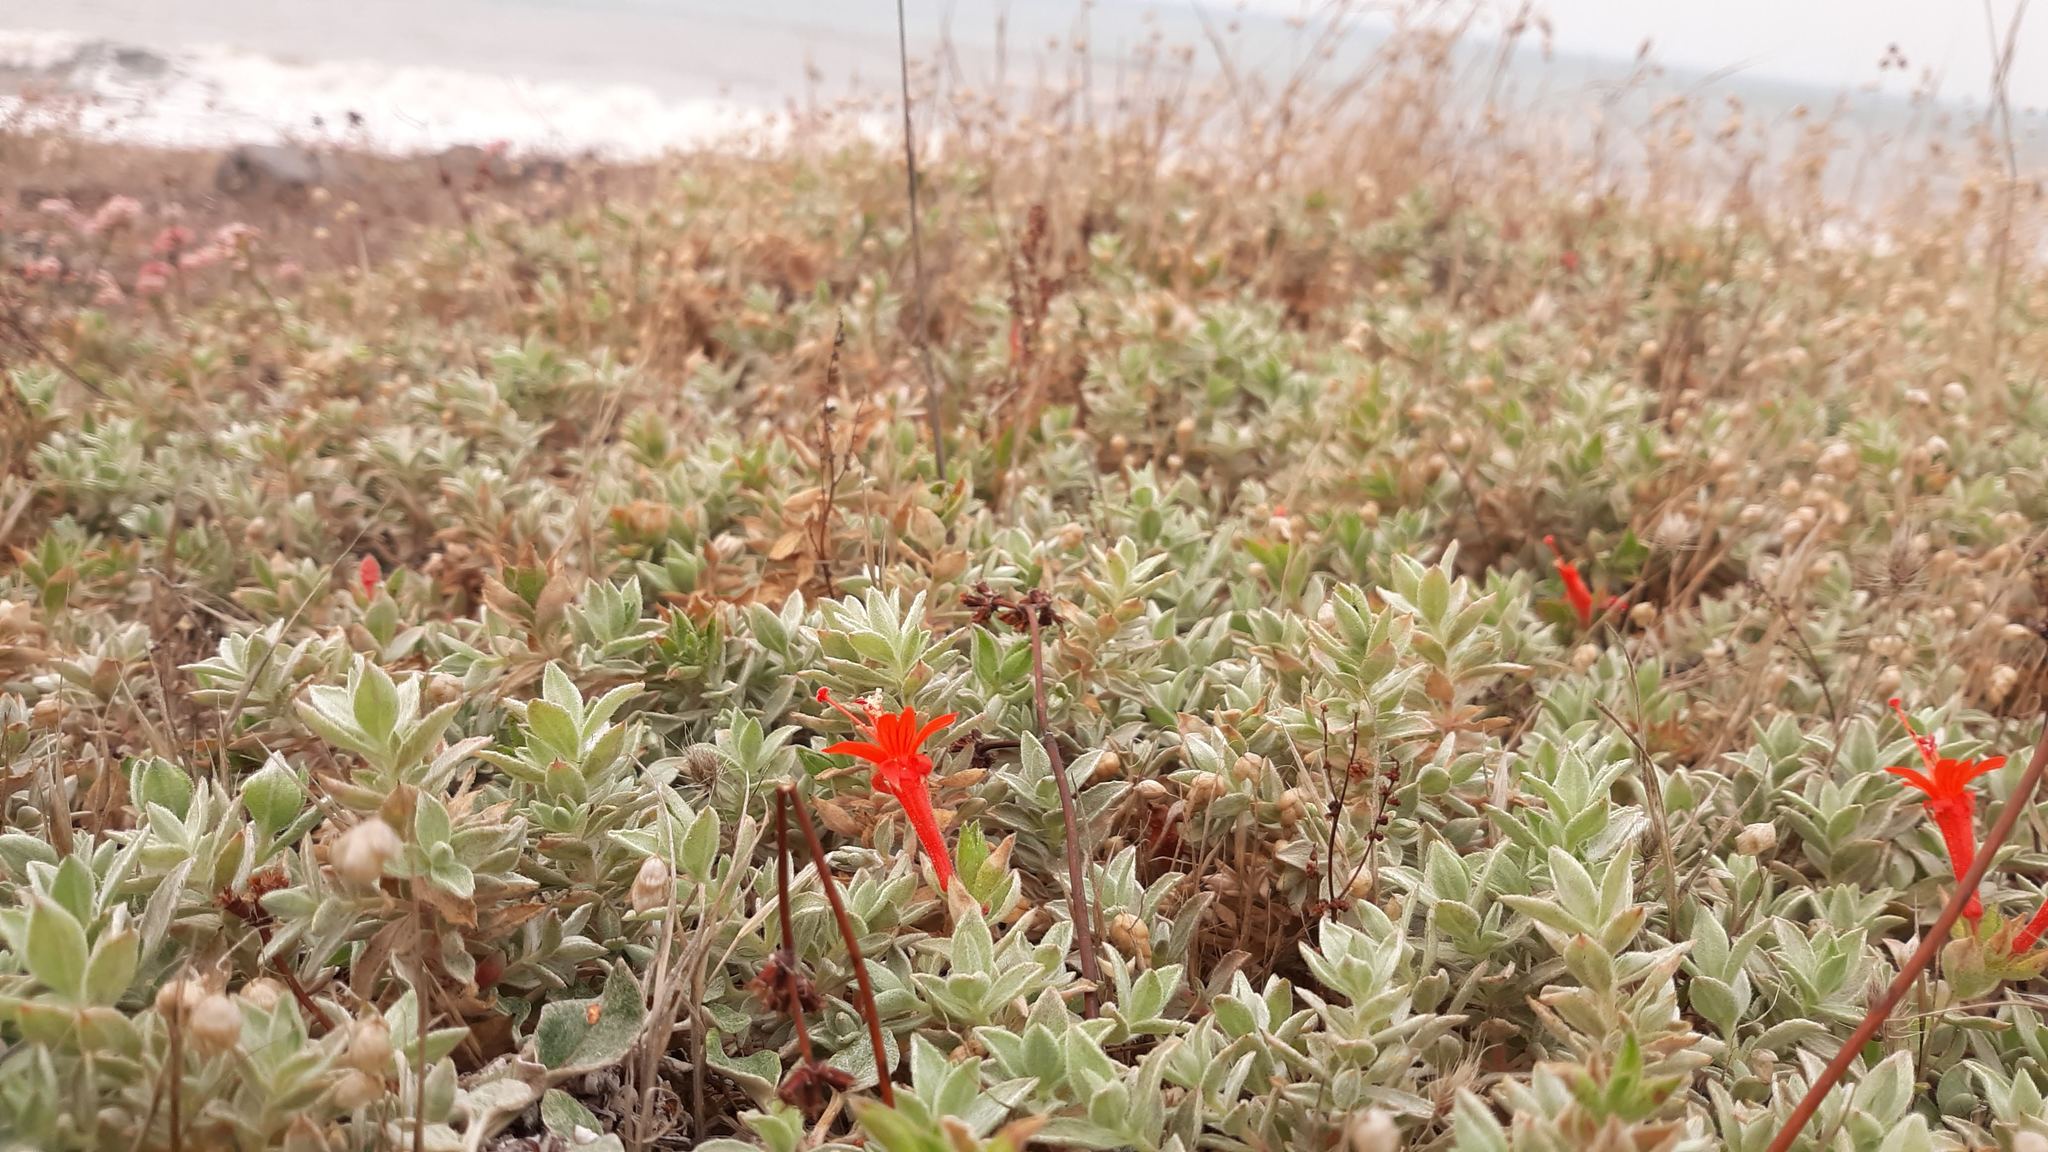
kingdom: Plantae
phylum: Tracheophyta
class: Magnoliopsida
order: Myrtales
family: Onagraceae
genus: Epilobium
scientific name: Epilobium canum
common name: California-fuchsia
